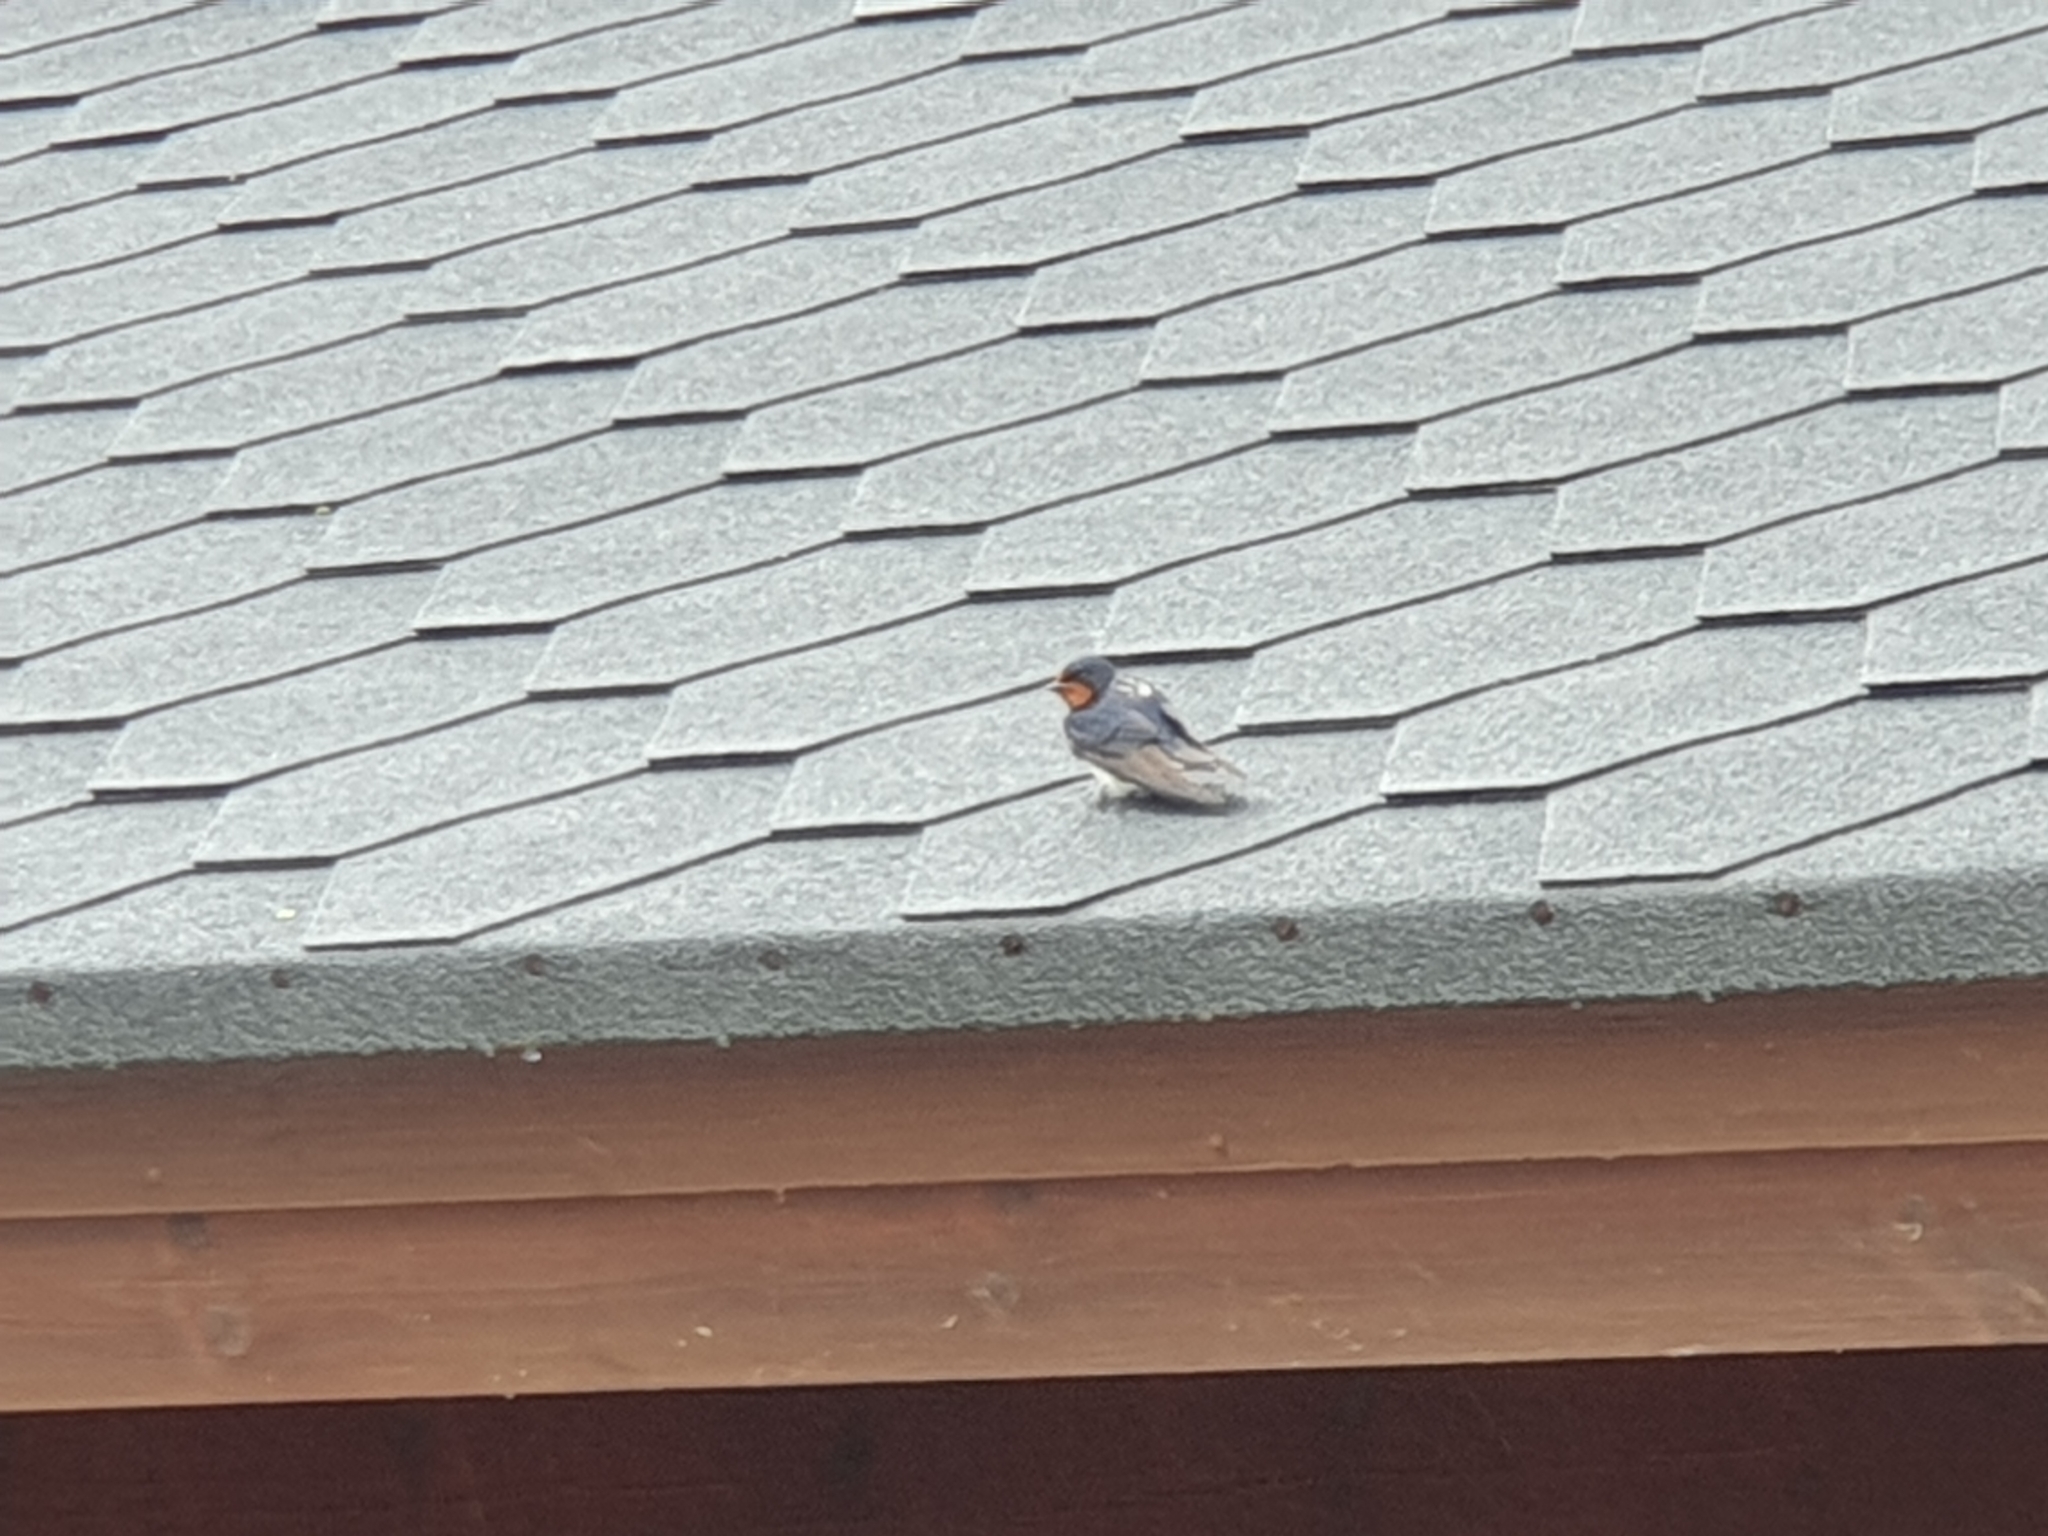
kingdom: Animalia
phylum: Chordata
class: Aves
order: Passeriformes
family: Hirundinidae
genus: Hirundo
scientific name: Hirundo rustica
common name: Barn swallow
